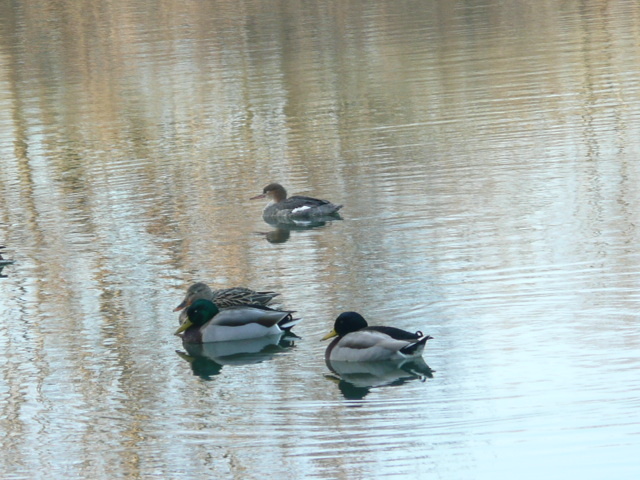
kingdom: Animalia
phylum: Chordata
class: Aves
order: Anseriformes
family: Anatidae
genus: Mergus
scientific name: Mergus serrator
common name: Red-breasted merganser
